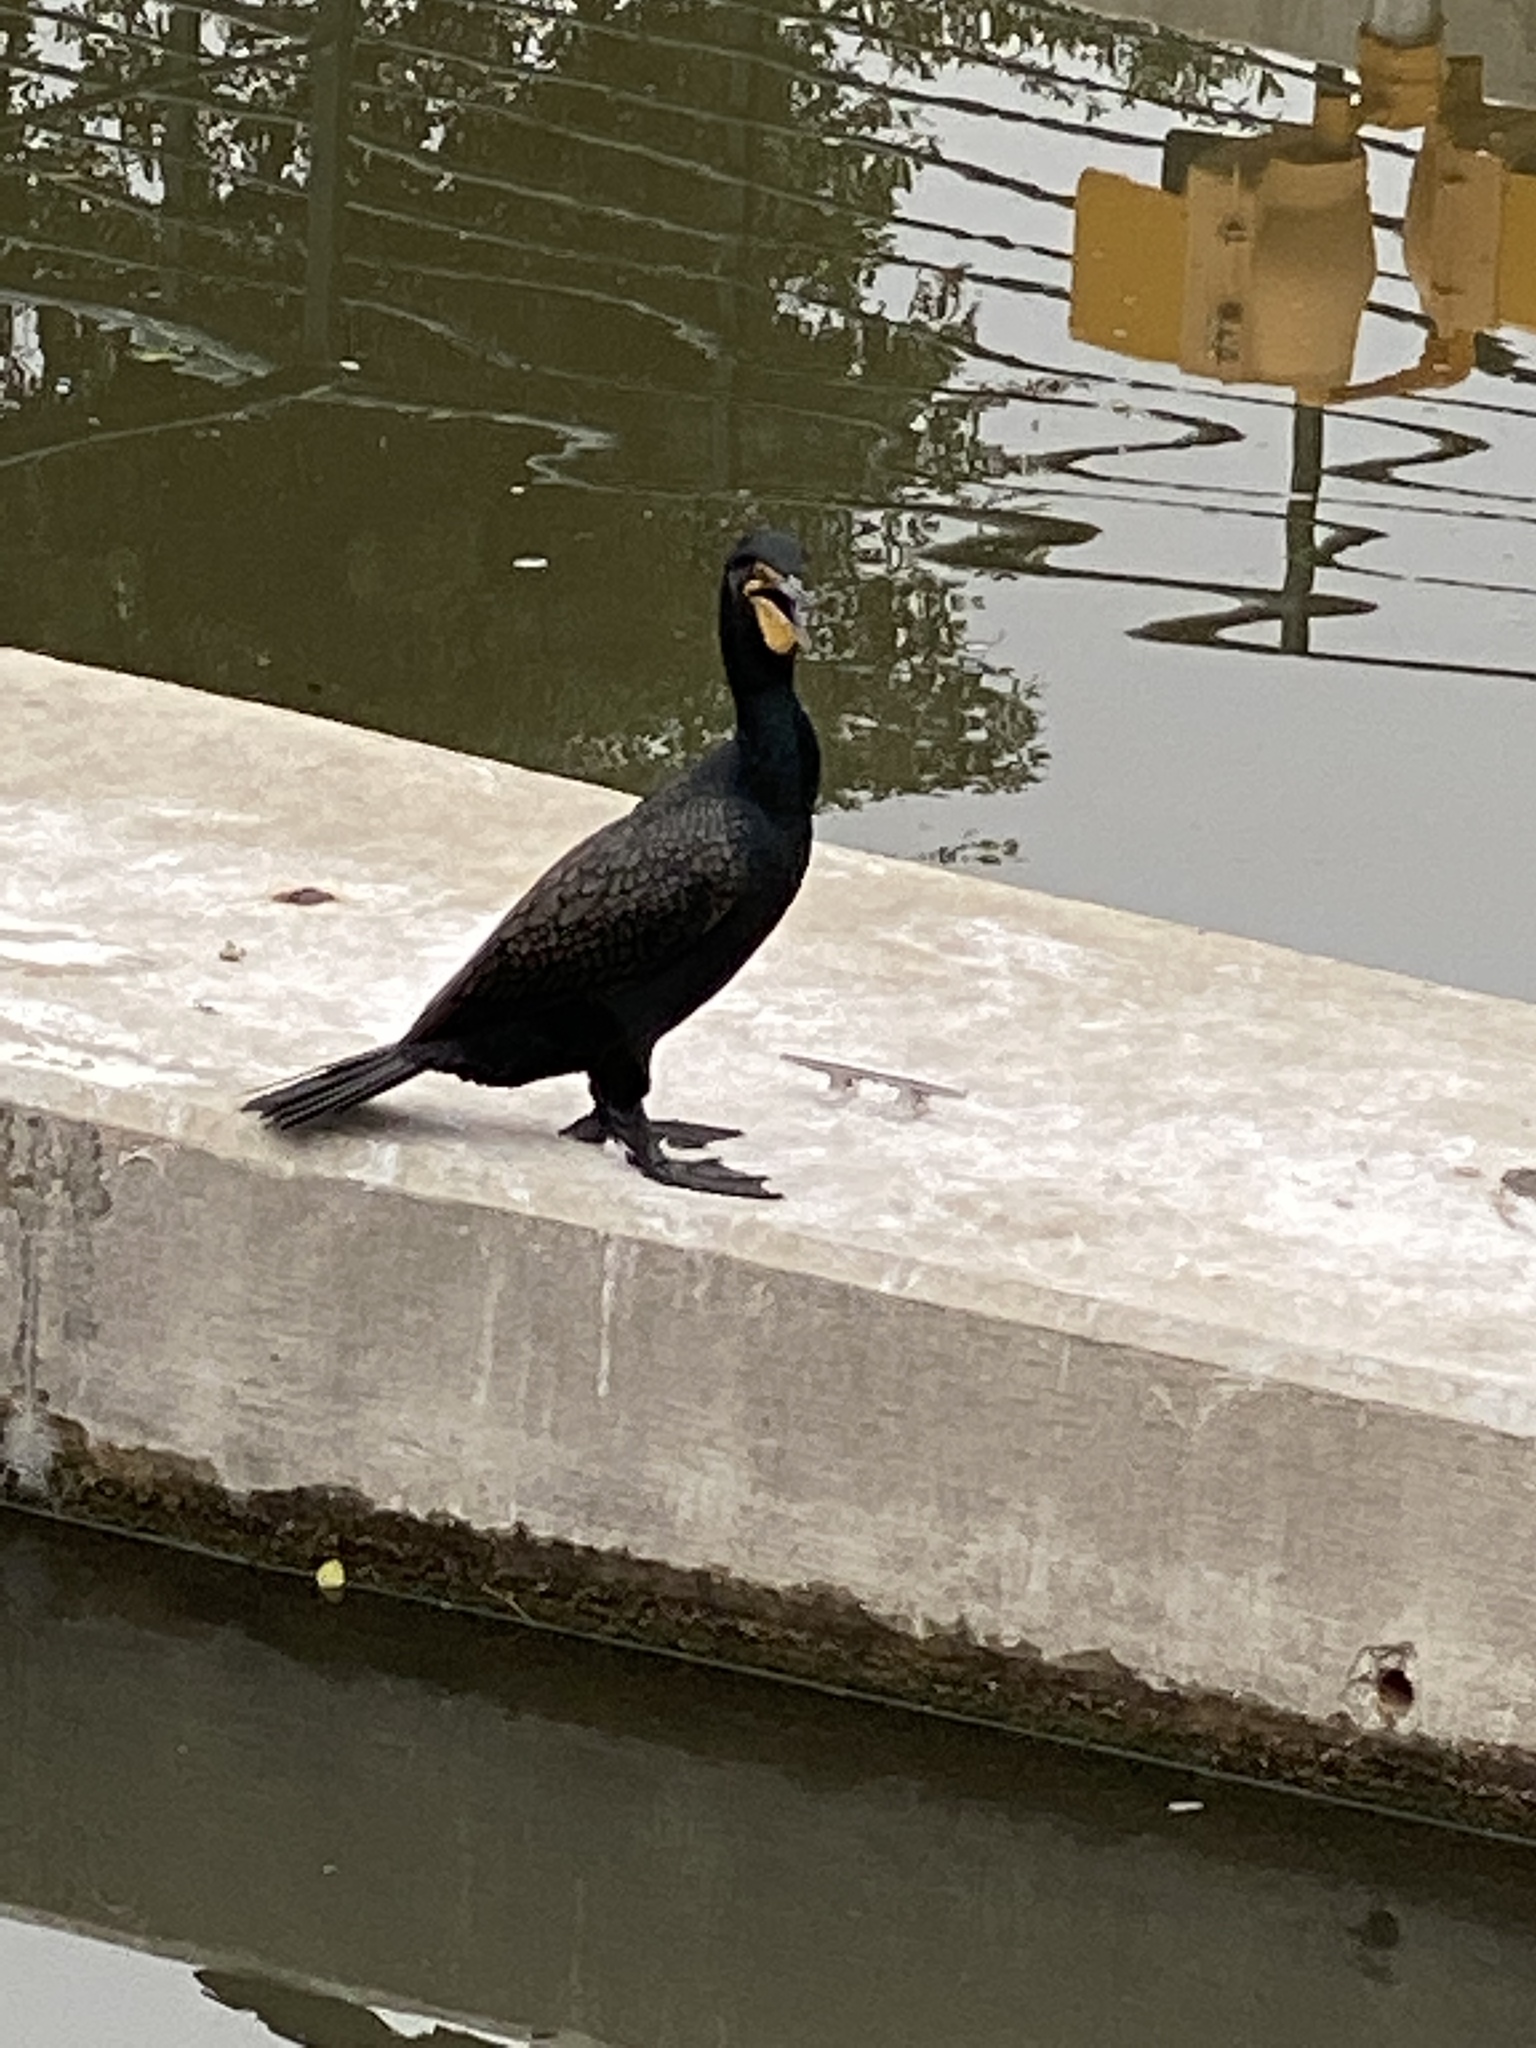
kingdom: Animalia
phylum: Chordata
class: Aves
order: Suliformes
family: Phalacrocoracidae
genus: Phalacrocorax
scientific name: Phalacrocorax auritus
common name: Double-crested cormorant
